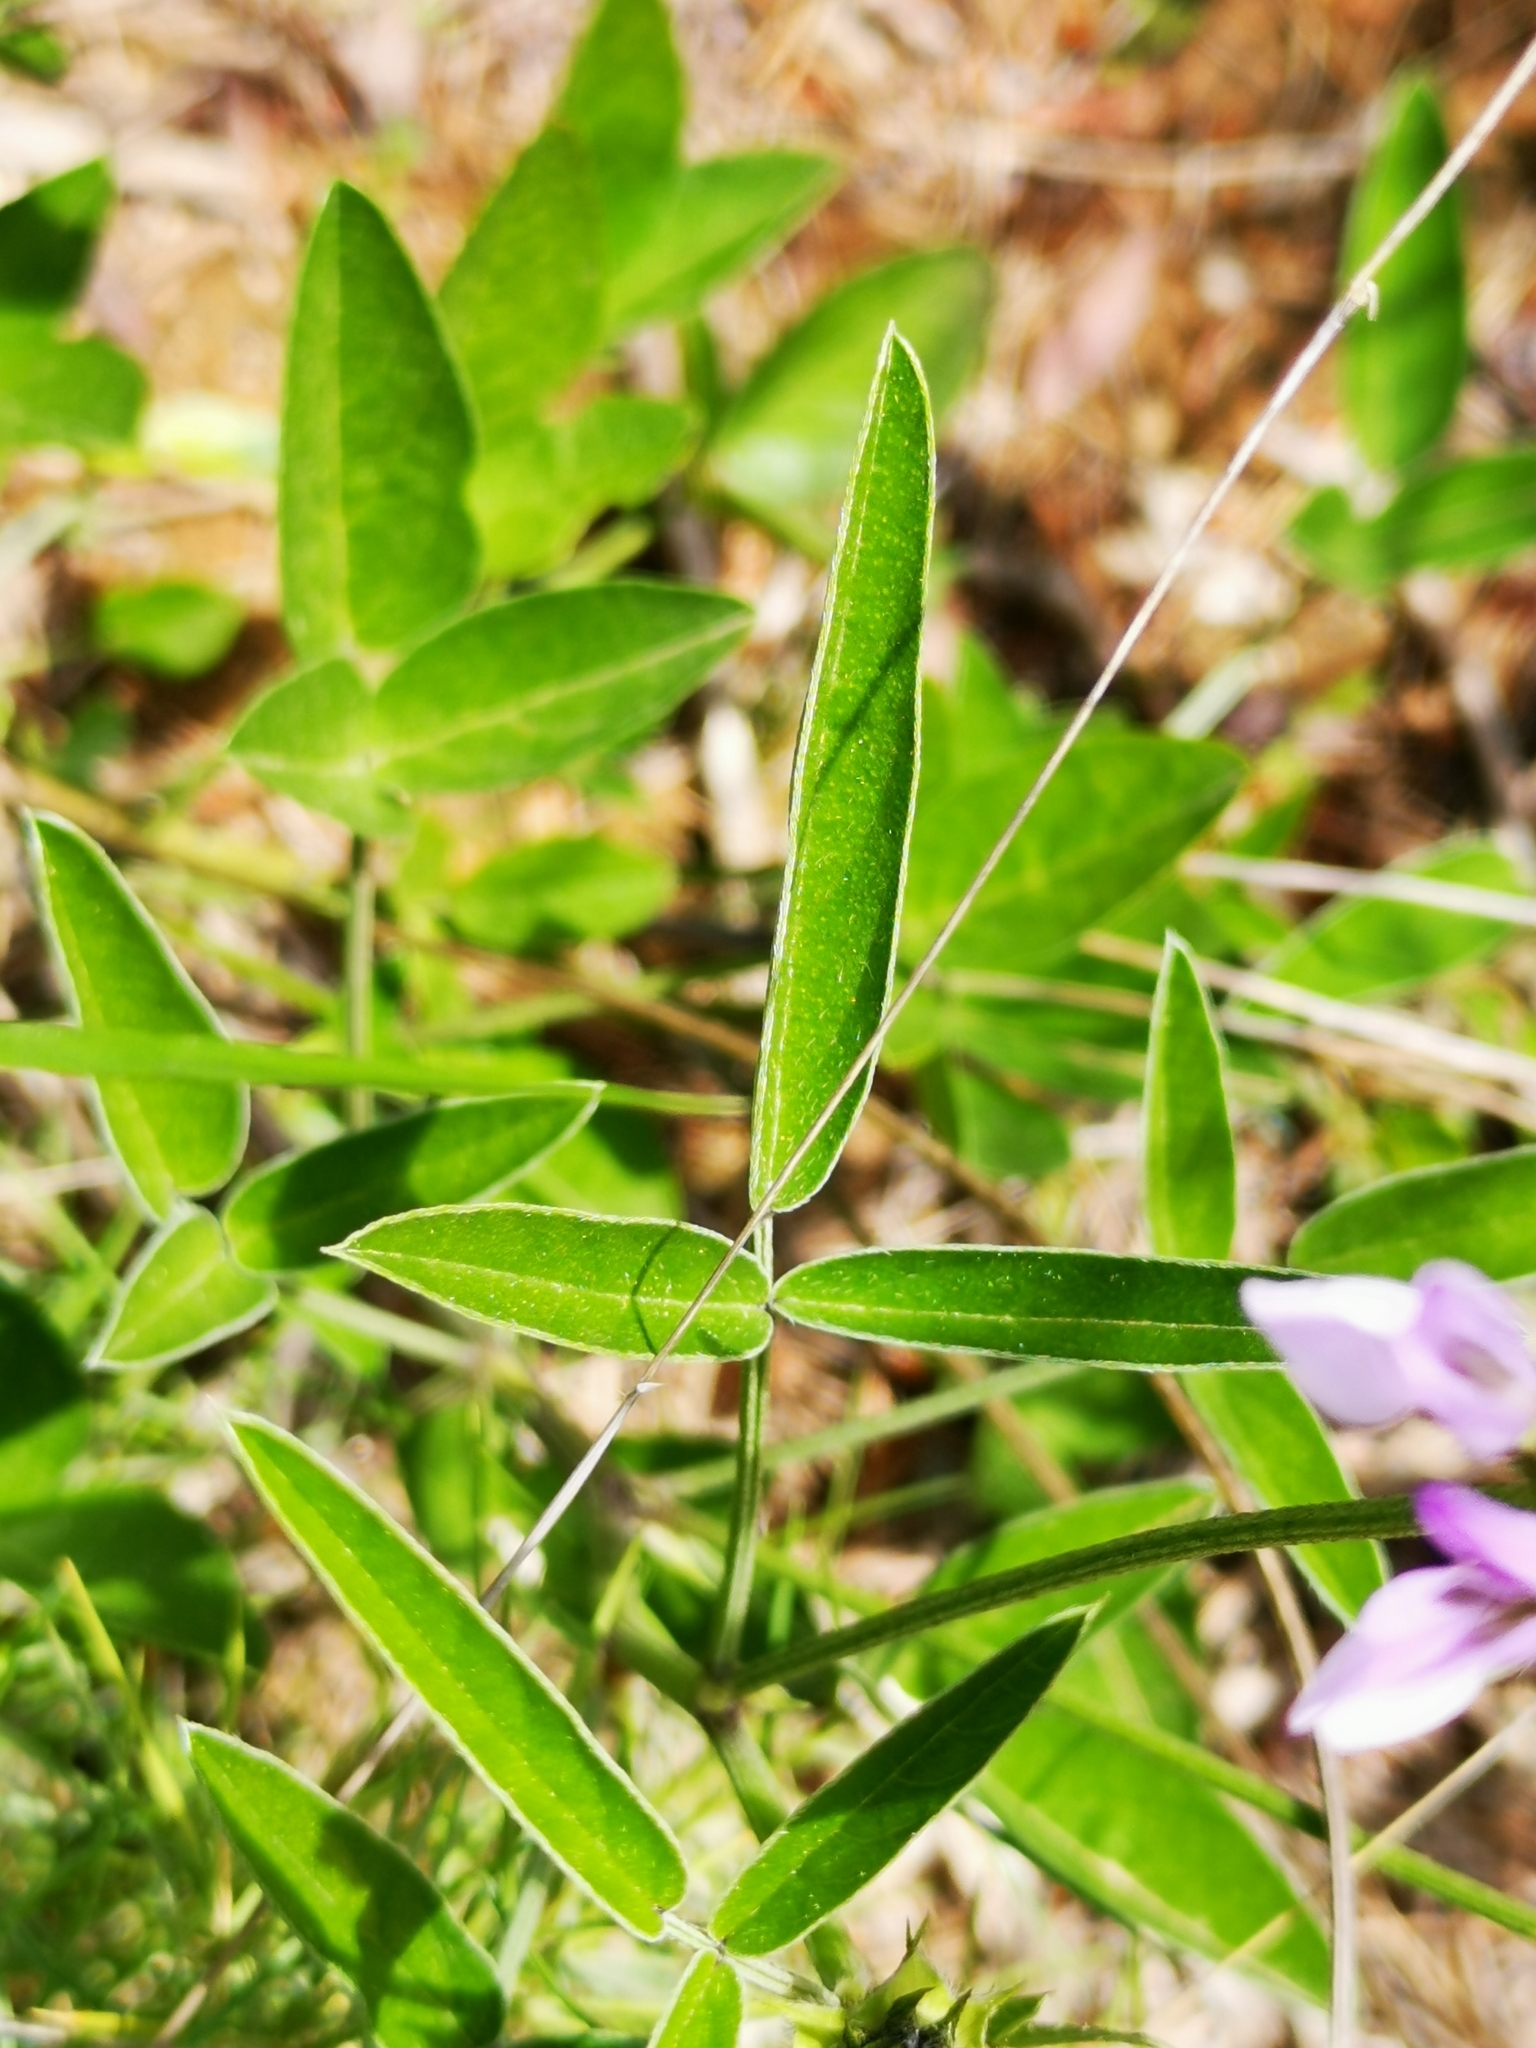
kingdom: Plantae
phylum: Tracheophyta
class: Magnoliopsida
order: Fabales
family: Fabaceae
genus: Bituminaria
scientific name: Bituminaria bituminosa
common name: Arabian pea
